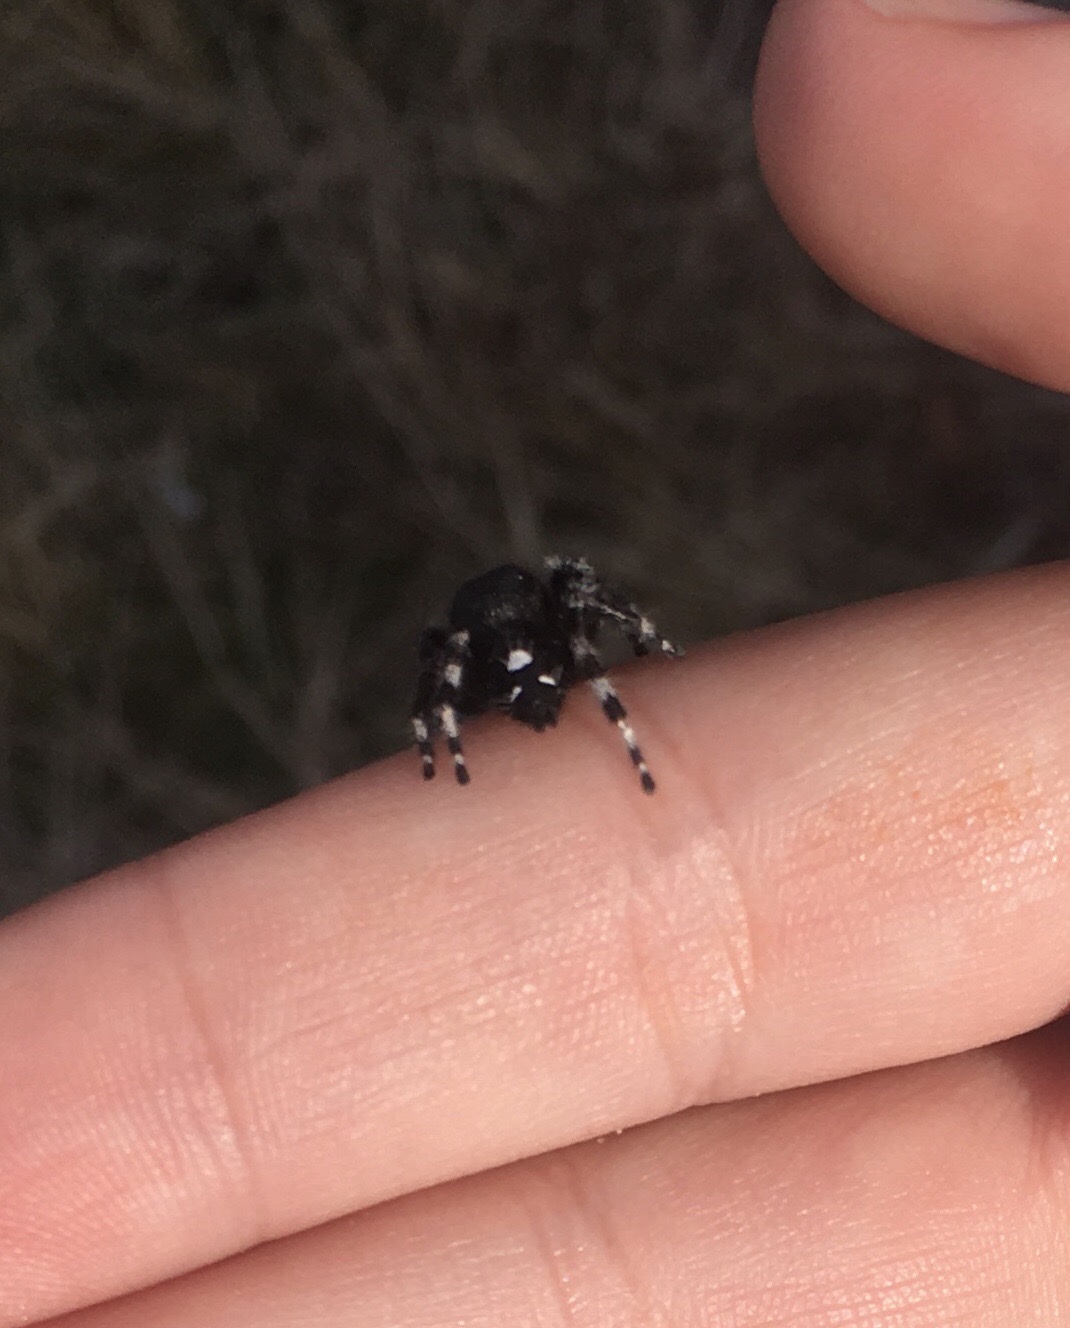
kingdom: Animalia
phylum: Arthropoda
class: Arachnida
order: Araneae
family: Salticidae
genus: Phidippus
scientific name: Phidippus audax
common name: Bold jumper
